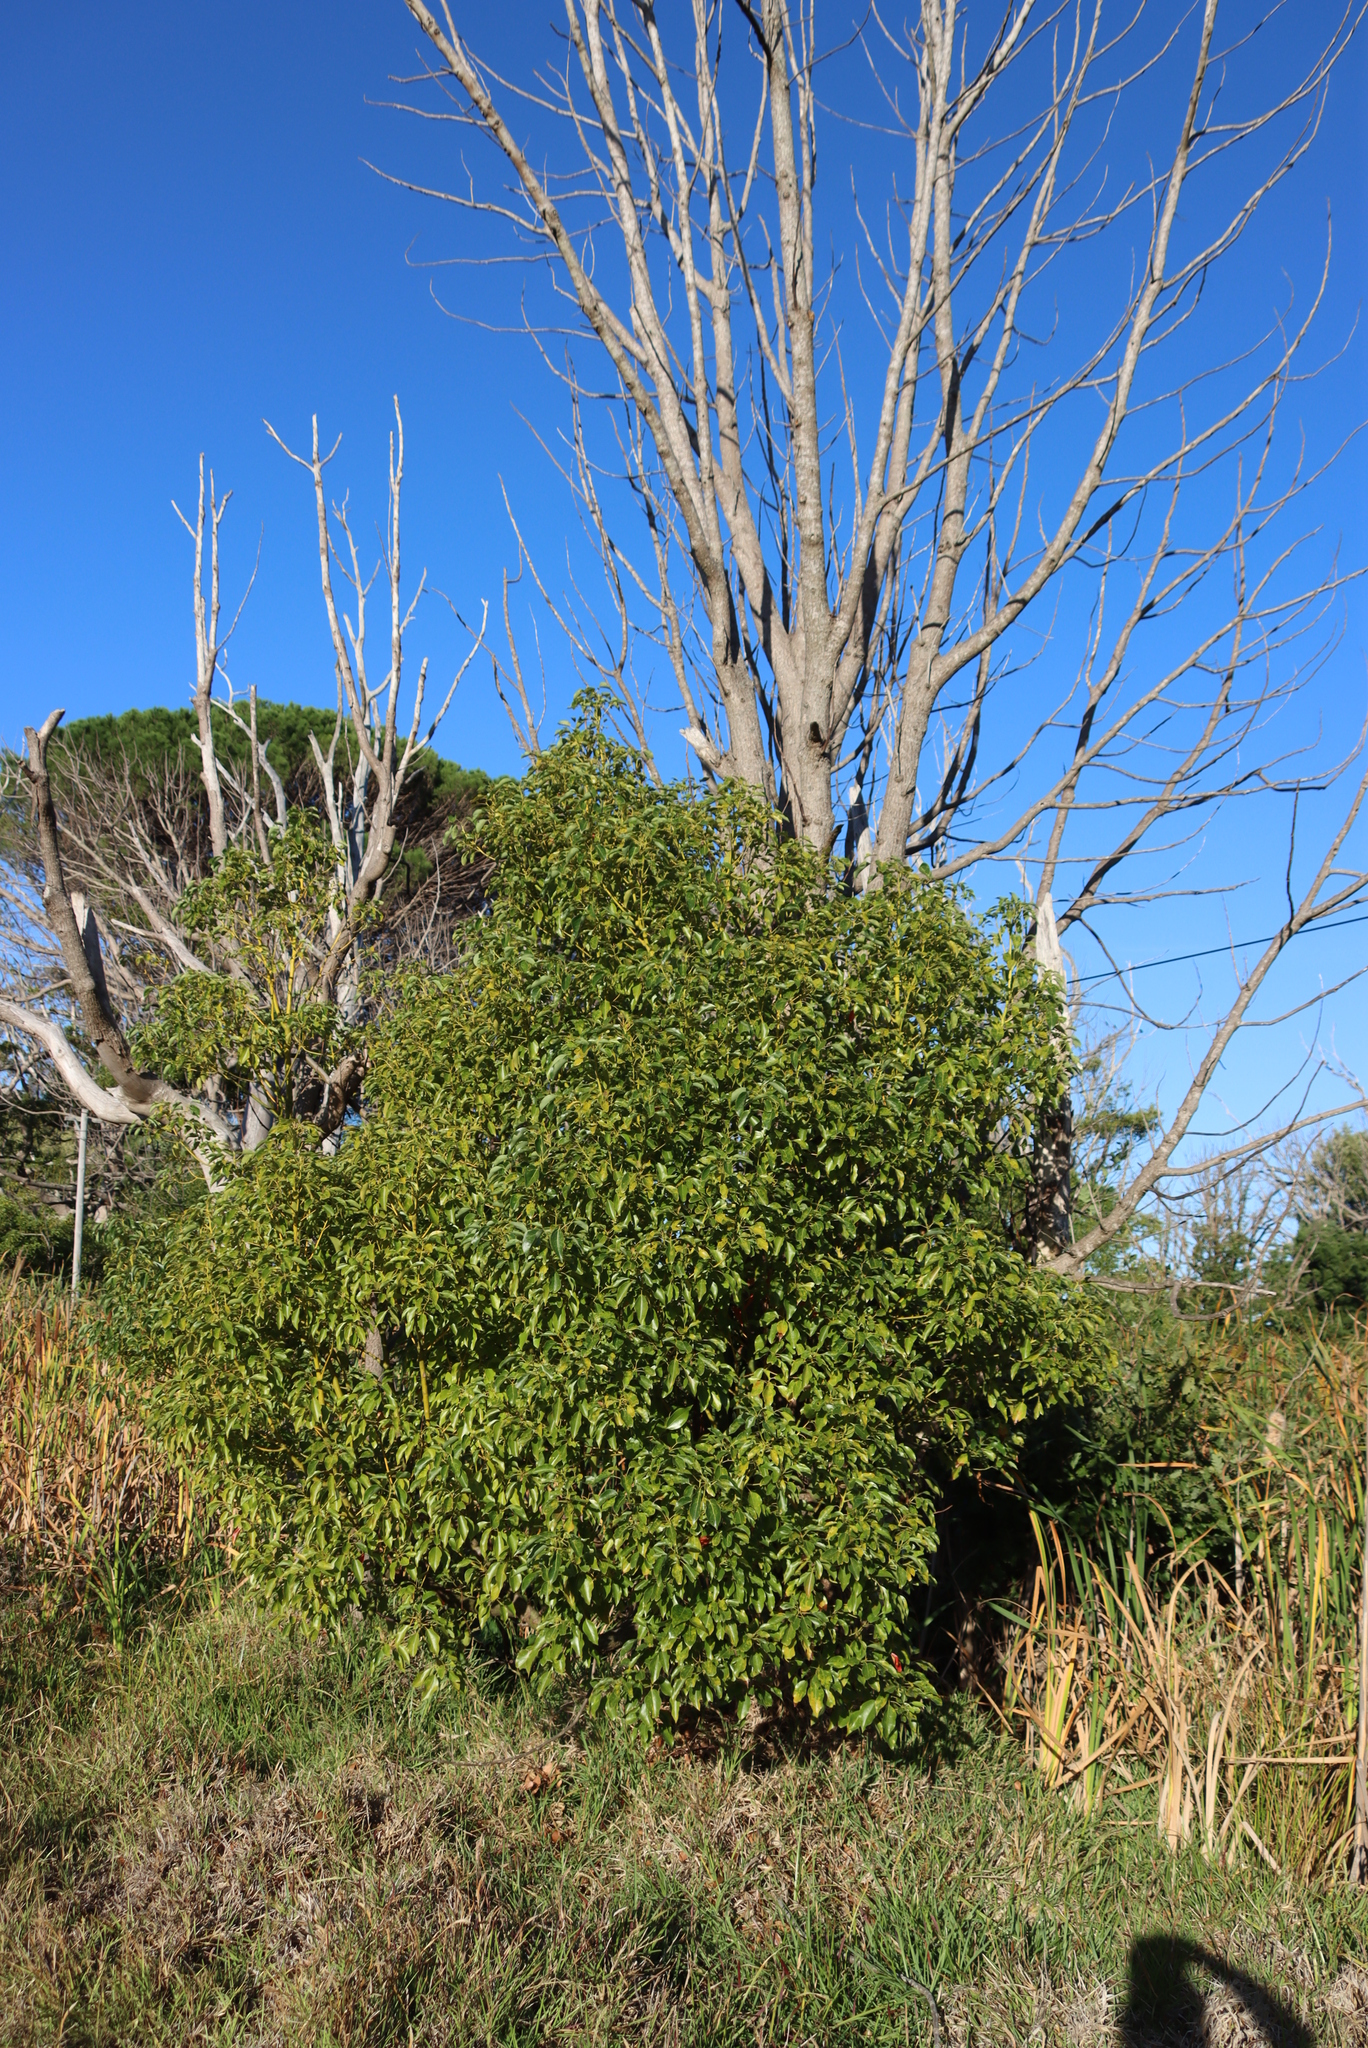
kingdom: Plantae
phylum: Tracheophyta
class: Magnoliopsida
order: Laurales
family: Lauraceae
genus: Cinnamomum
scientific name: Cinnamomum camphora
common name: Camphortree
